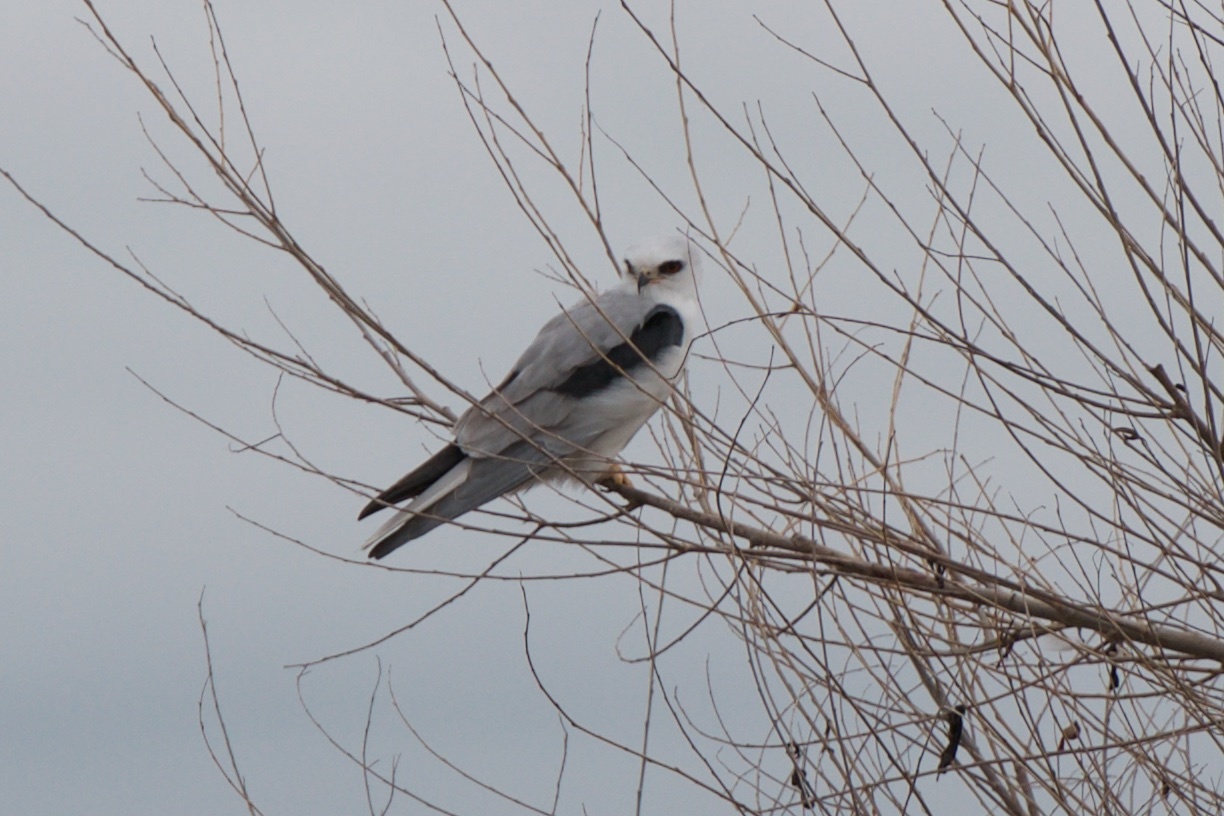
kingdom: Animalia
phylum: Chordata
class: Aves
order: Accipitriformes
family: Accipitridae
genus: Elanus
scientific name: Elanus leucurus
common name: White-tailed kite
